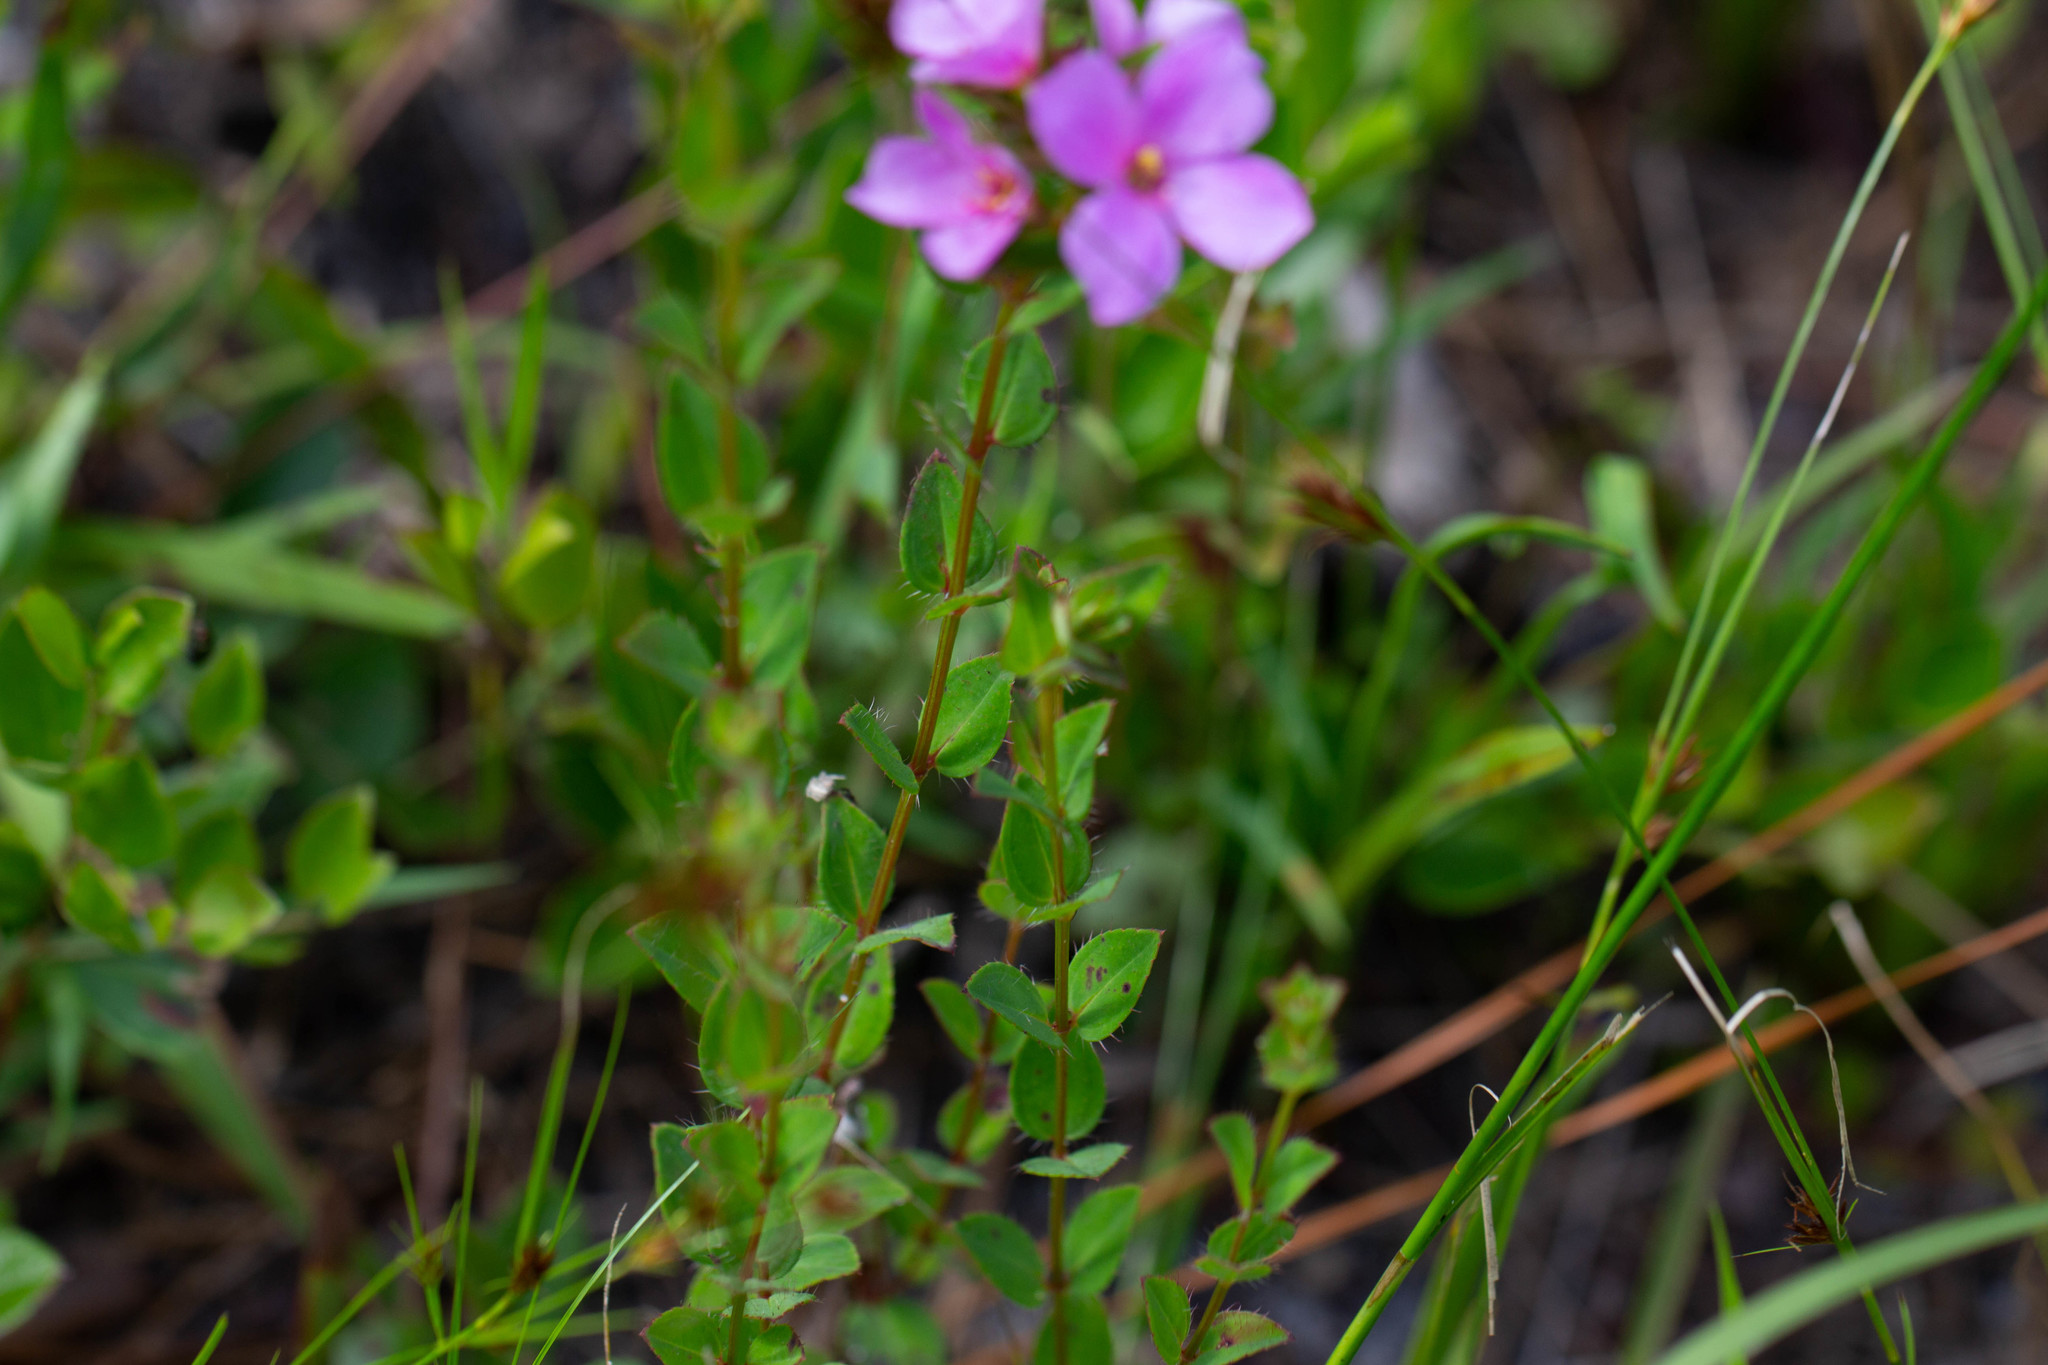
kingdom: Plantae
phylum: Tracheophyta
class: Magnoliopsida
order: Myrtales
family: Melastomataceae
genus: Rhexia
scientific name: Rhexia petiolata
